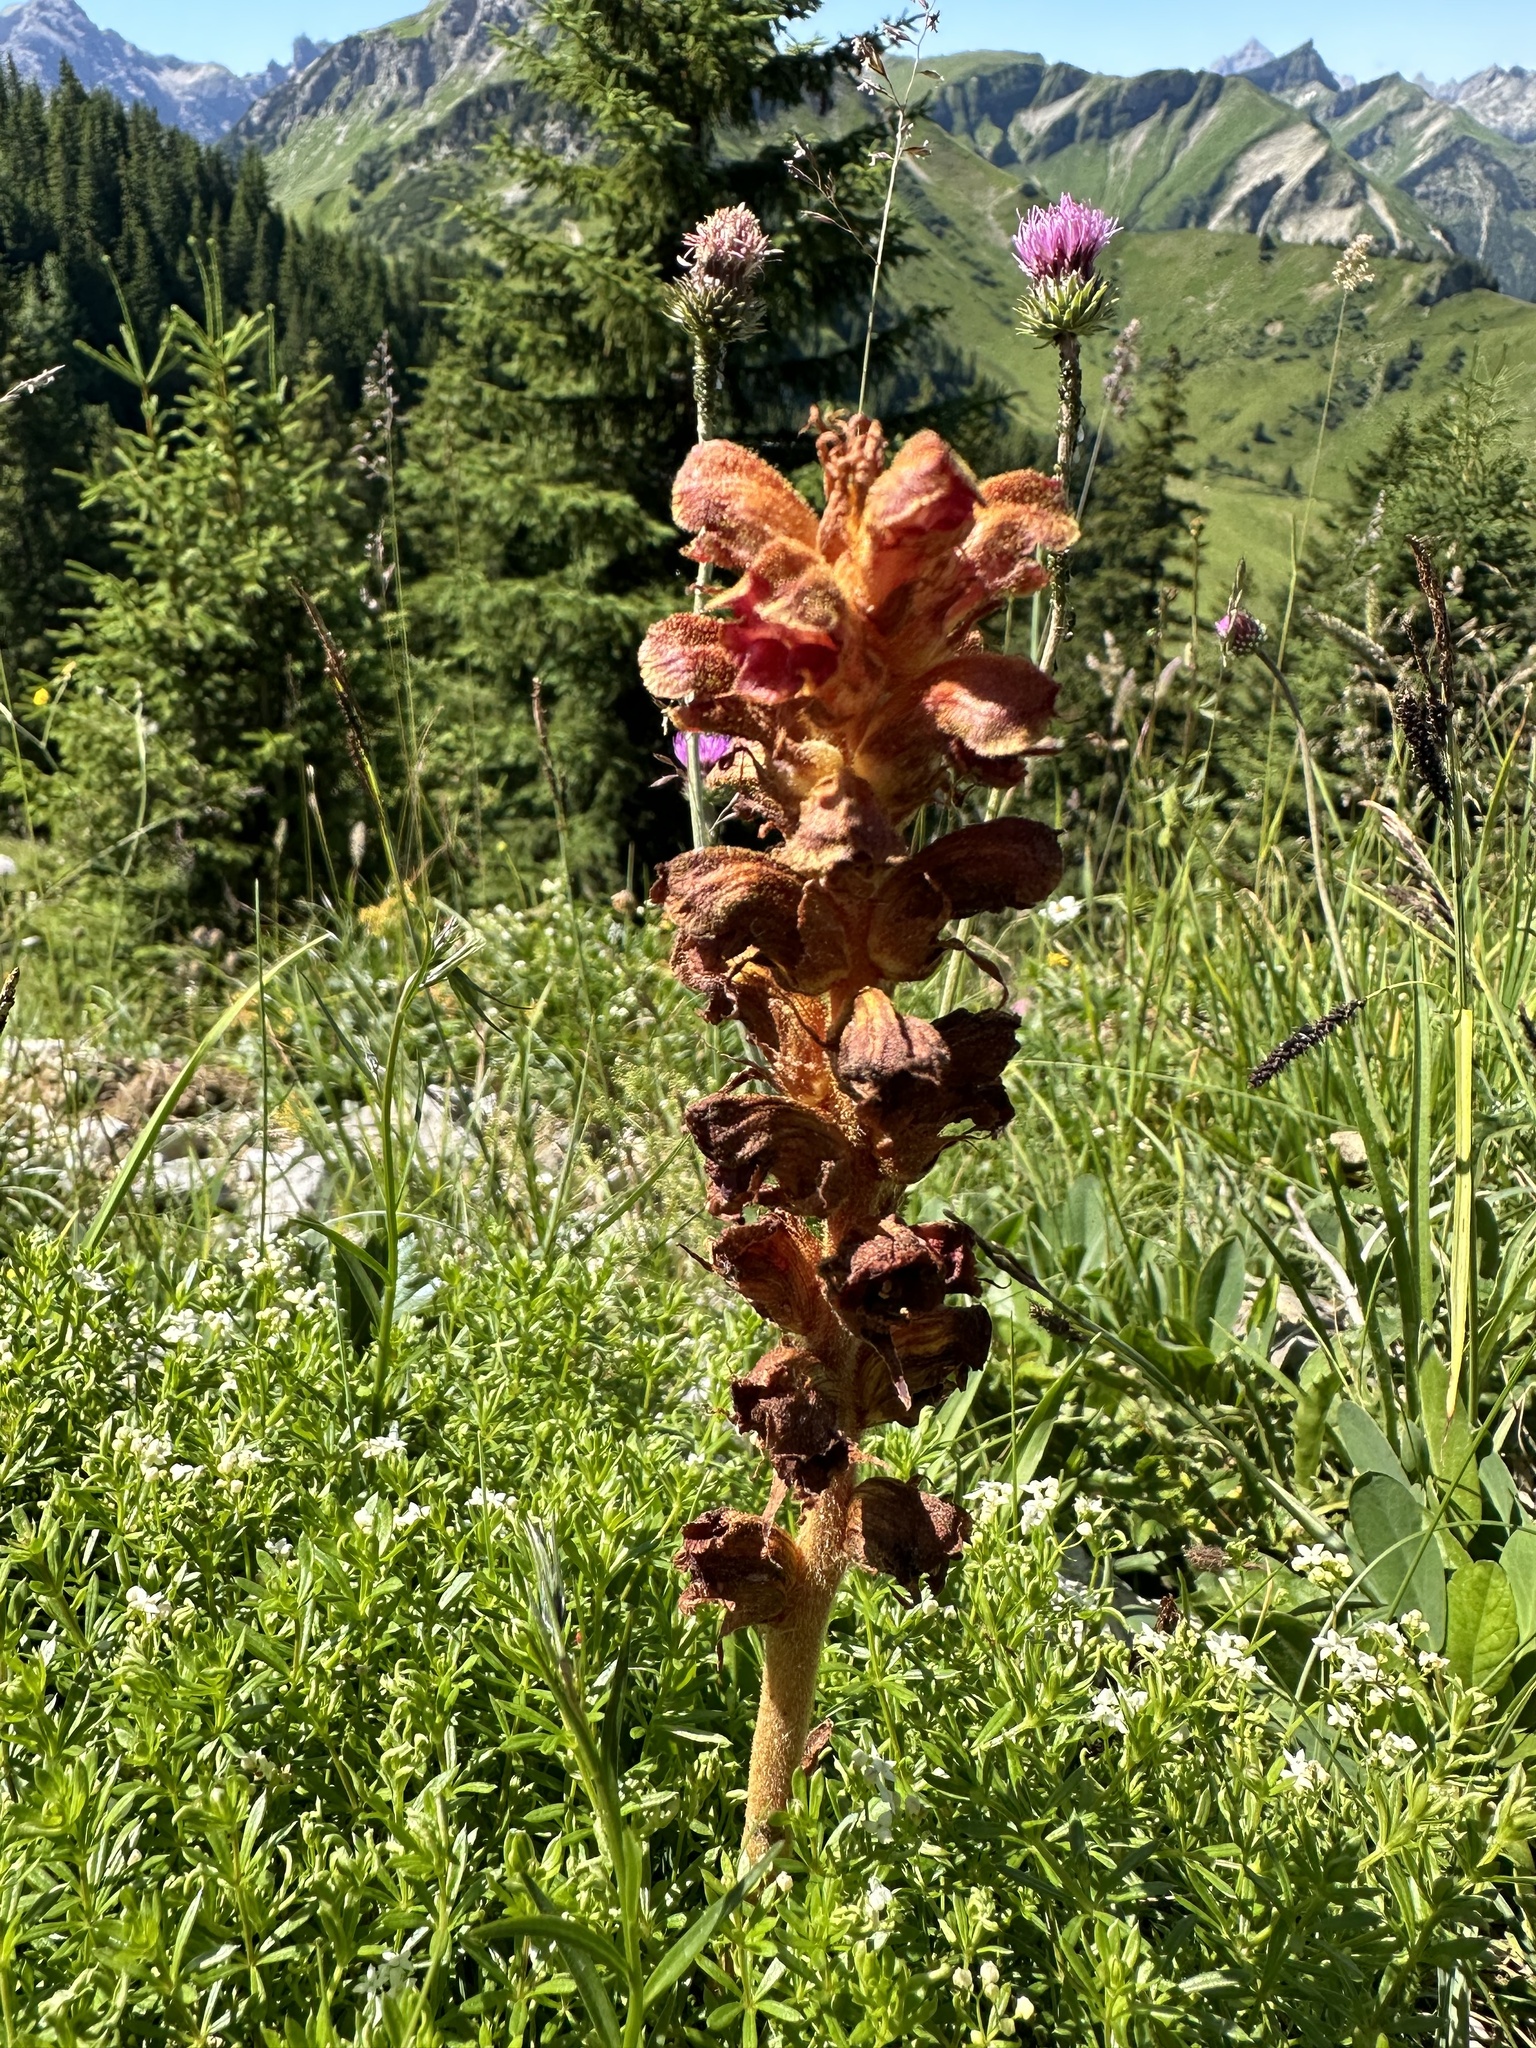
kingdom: Plantae
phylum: Tracheophyta
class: Magnoliopsida
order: Lamiales
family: Orobanchaceae
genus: Orobanche
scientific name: Orobanche gracilis
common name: Slender broomrape
